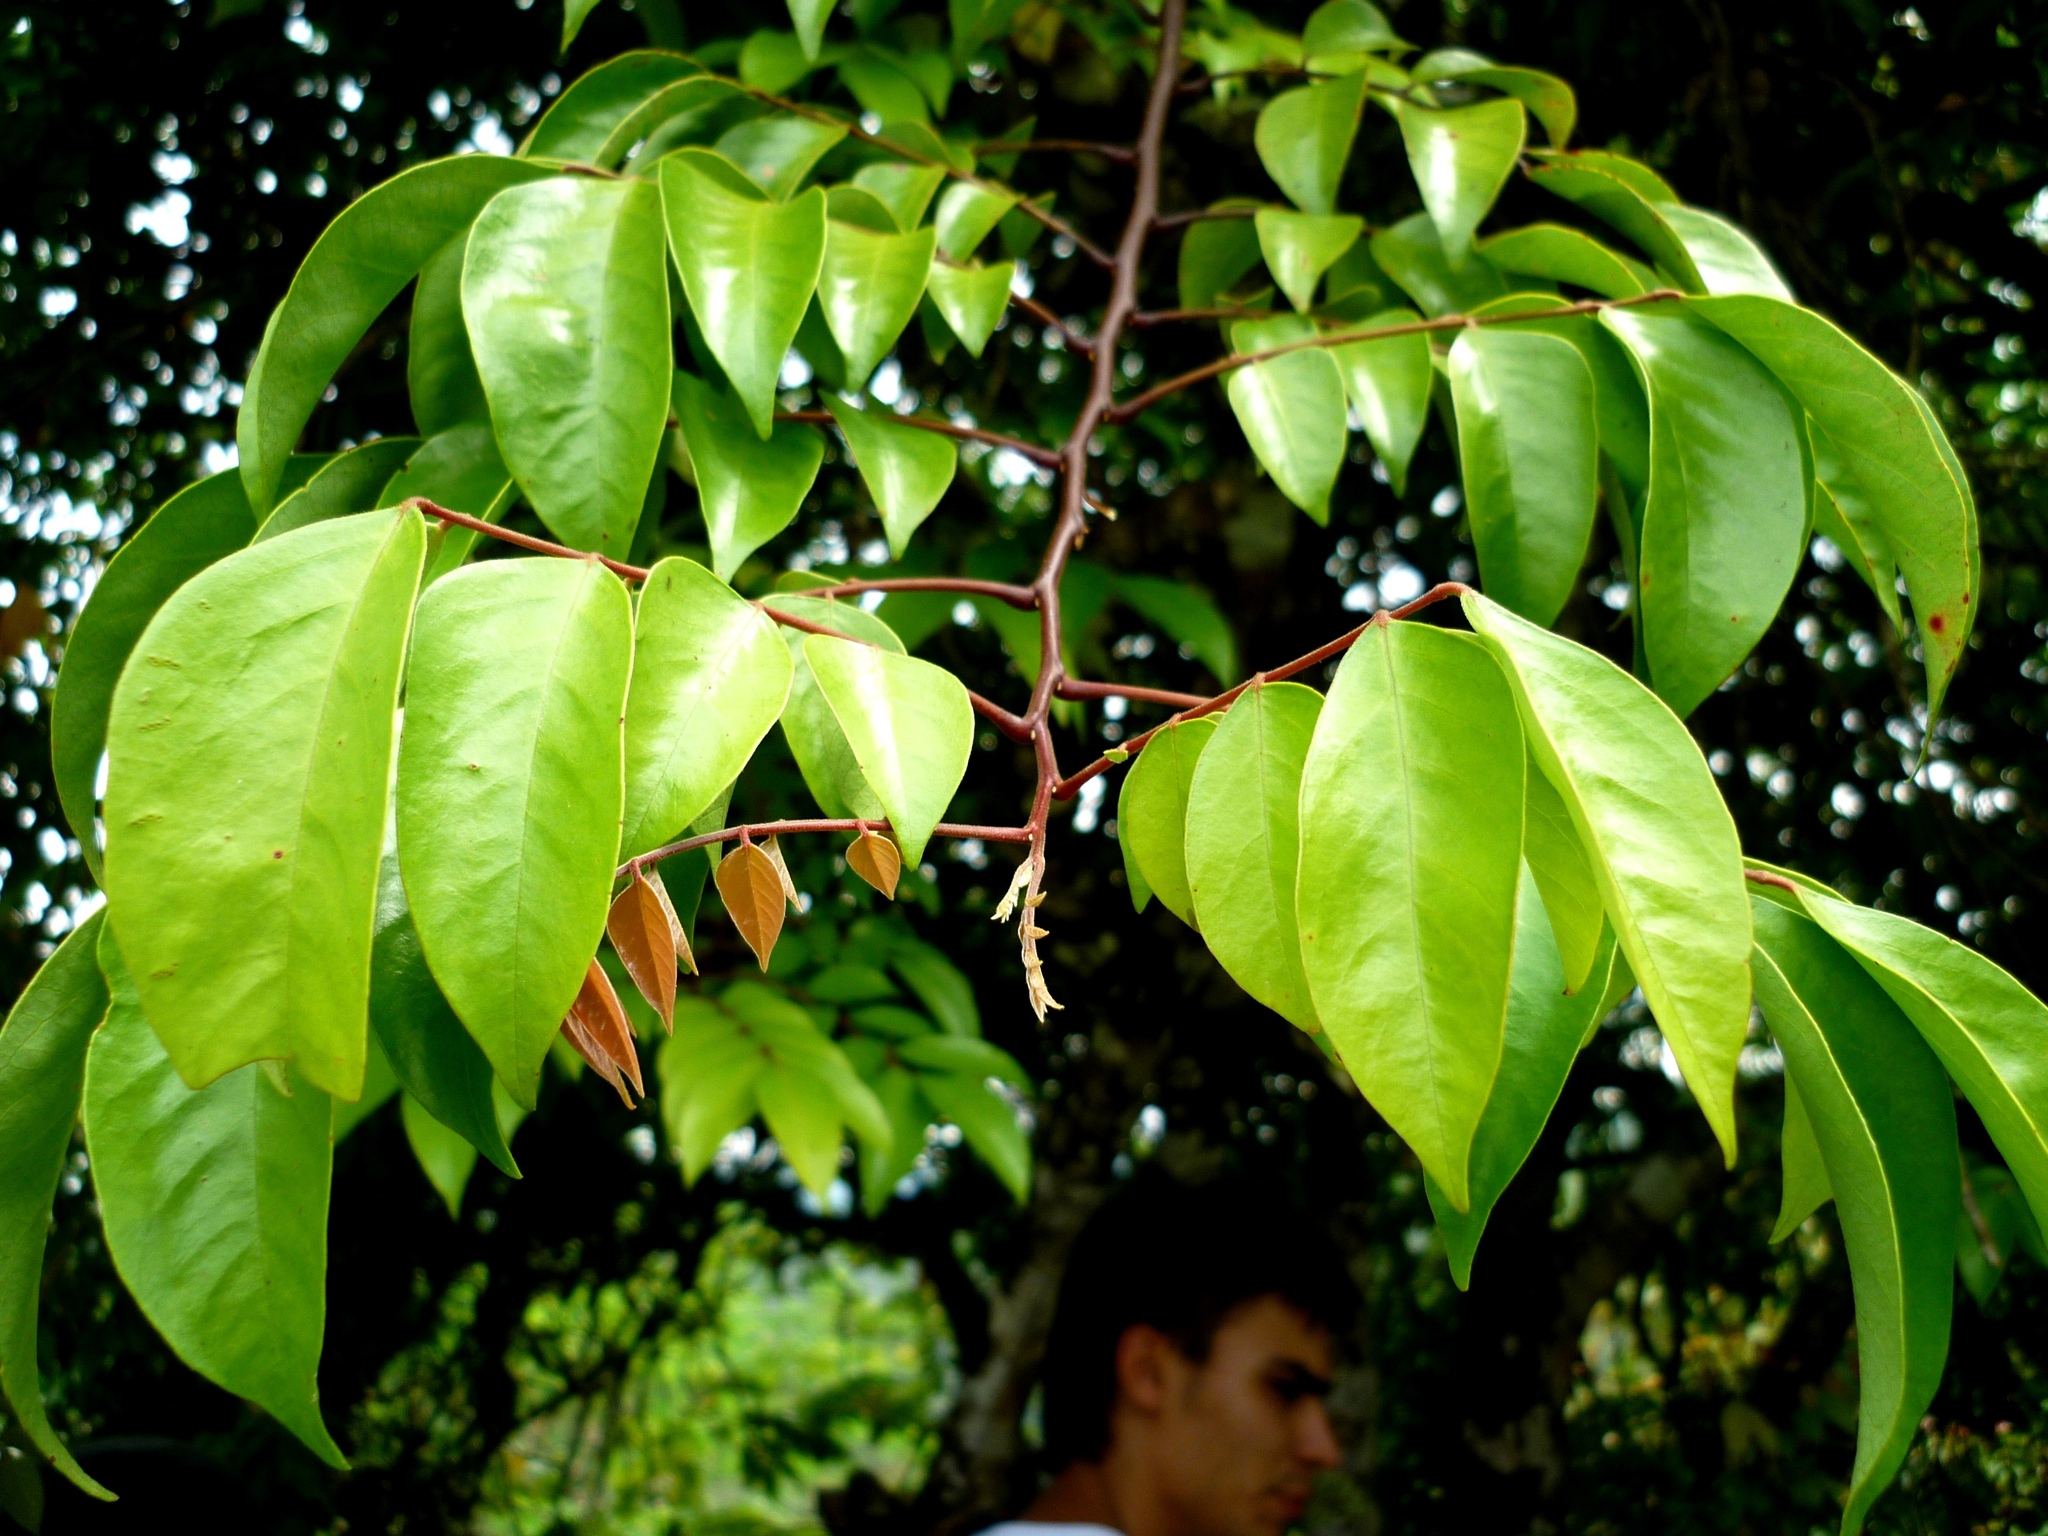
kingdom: Plantae
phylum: Tracheophyta
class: Magnoliopsida
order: Oxalidales
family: Oxalidaceae
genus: Averrhoa
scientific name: Averrhoa carambola
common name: Blimbing
